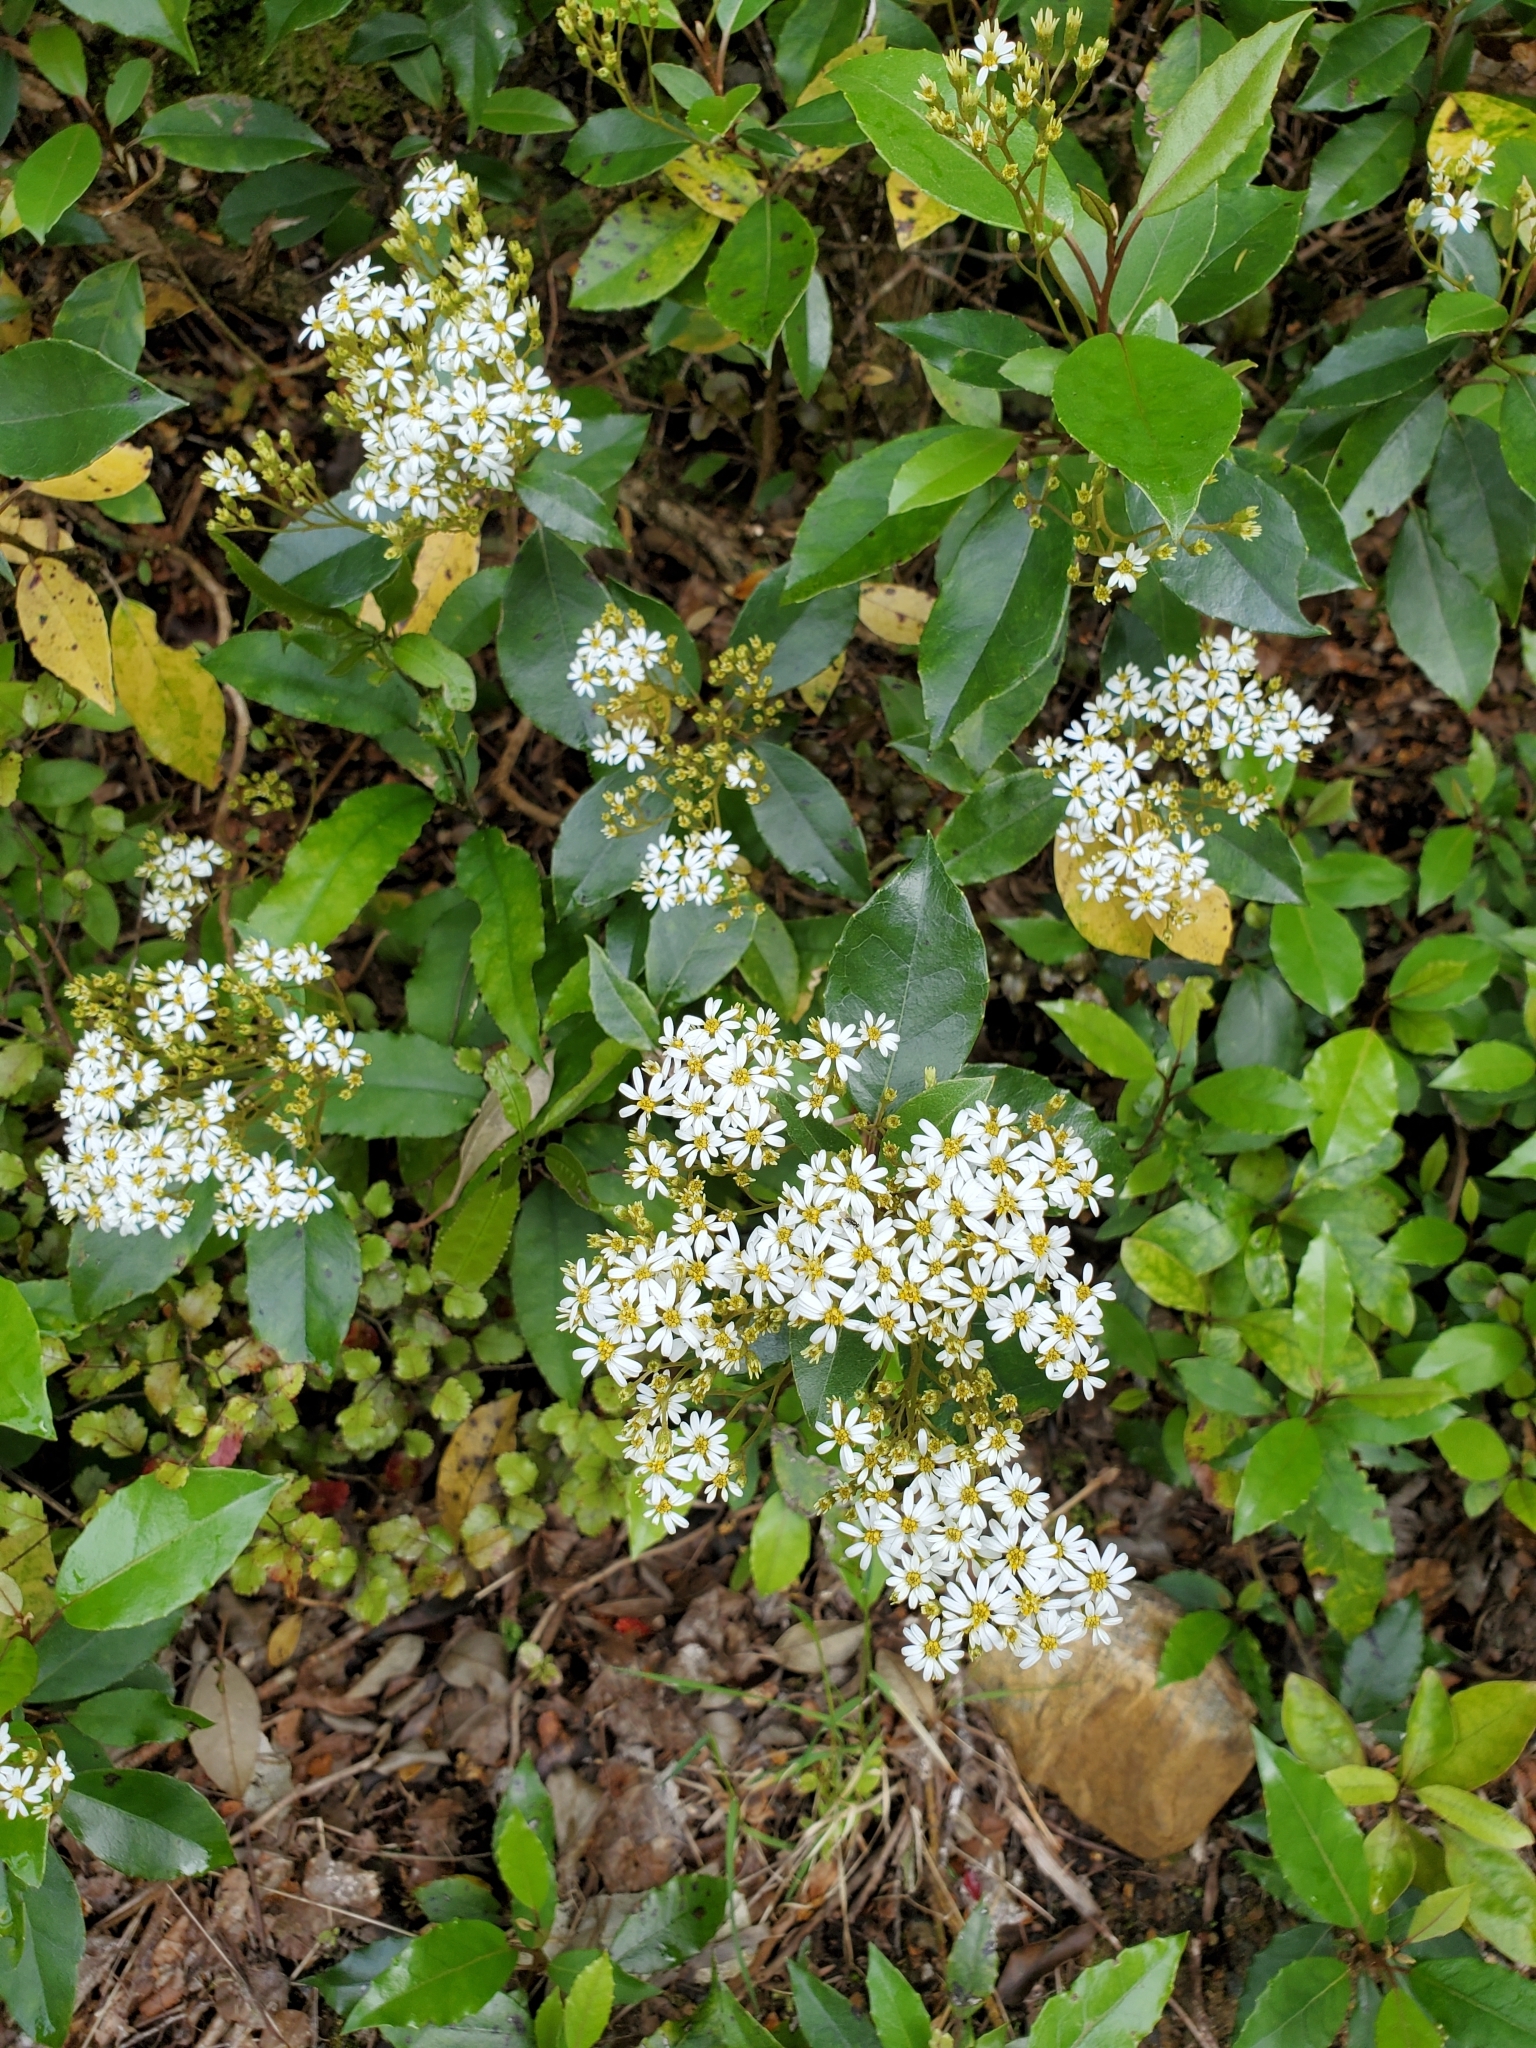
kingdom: Plantae
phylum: Tracheophyta
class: Magnoliopsida
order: Asterales
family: Asteraceae
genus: Olearia
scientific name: Olearia arborescens
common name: Glossy tree daisy
